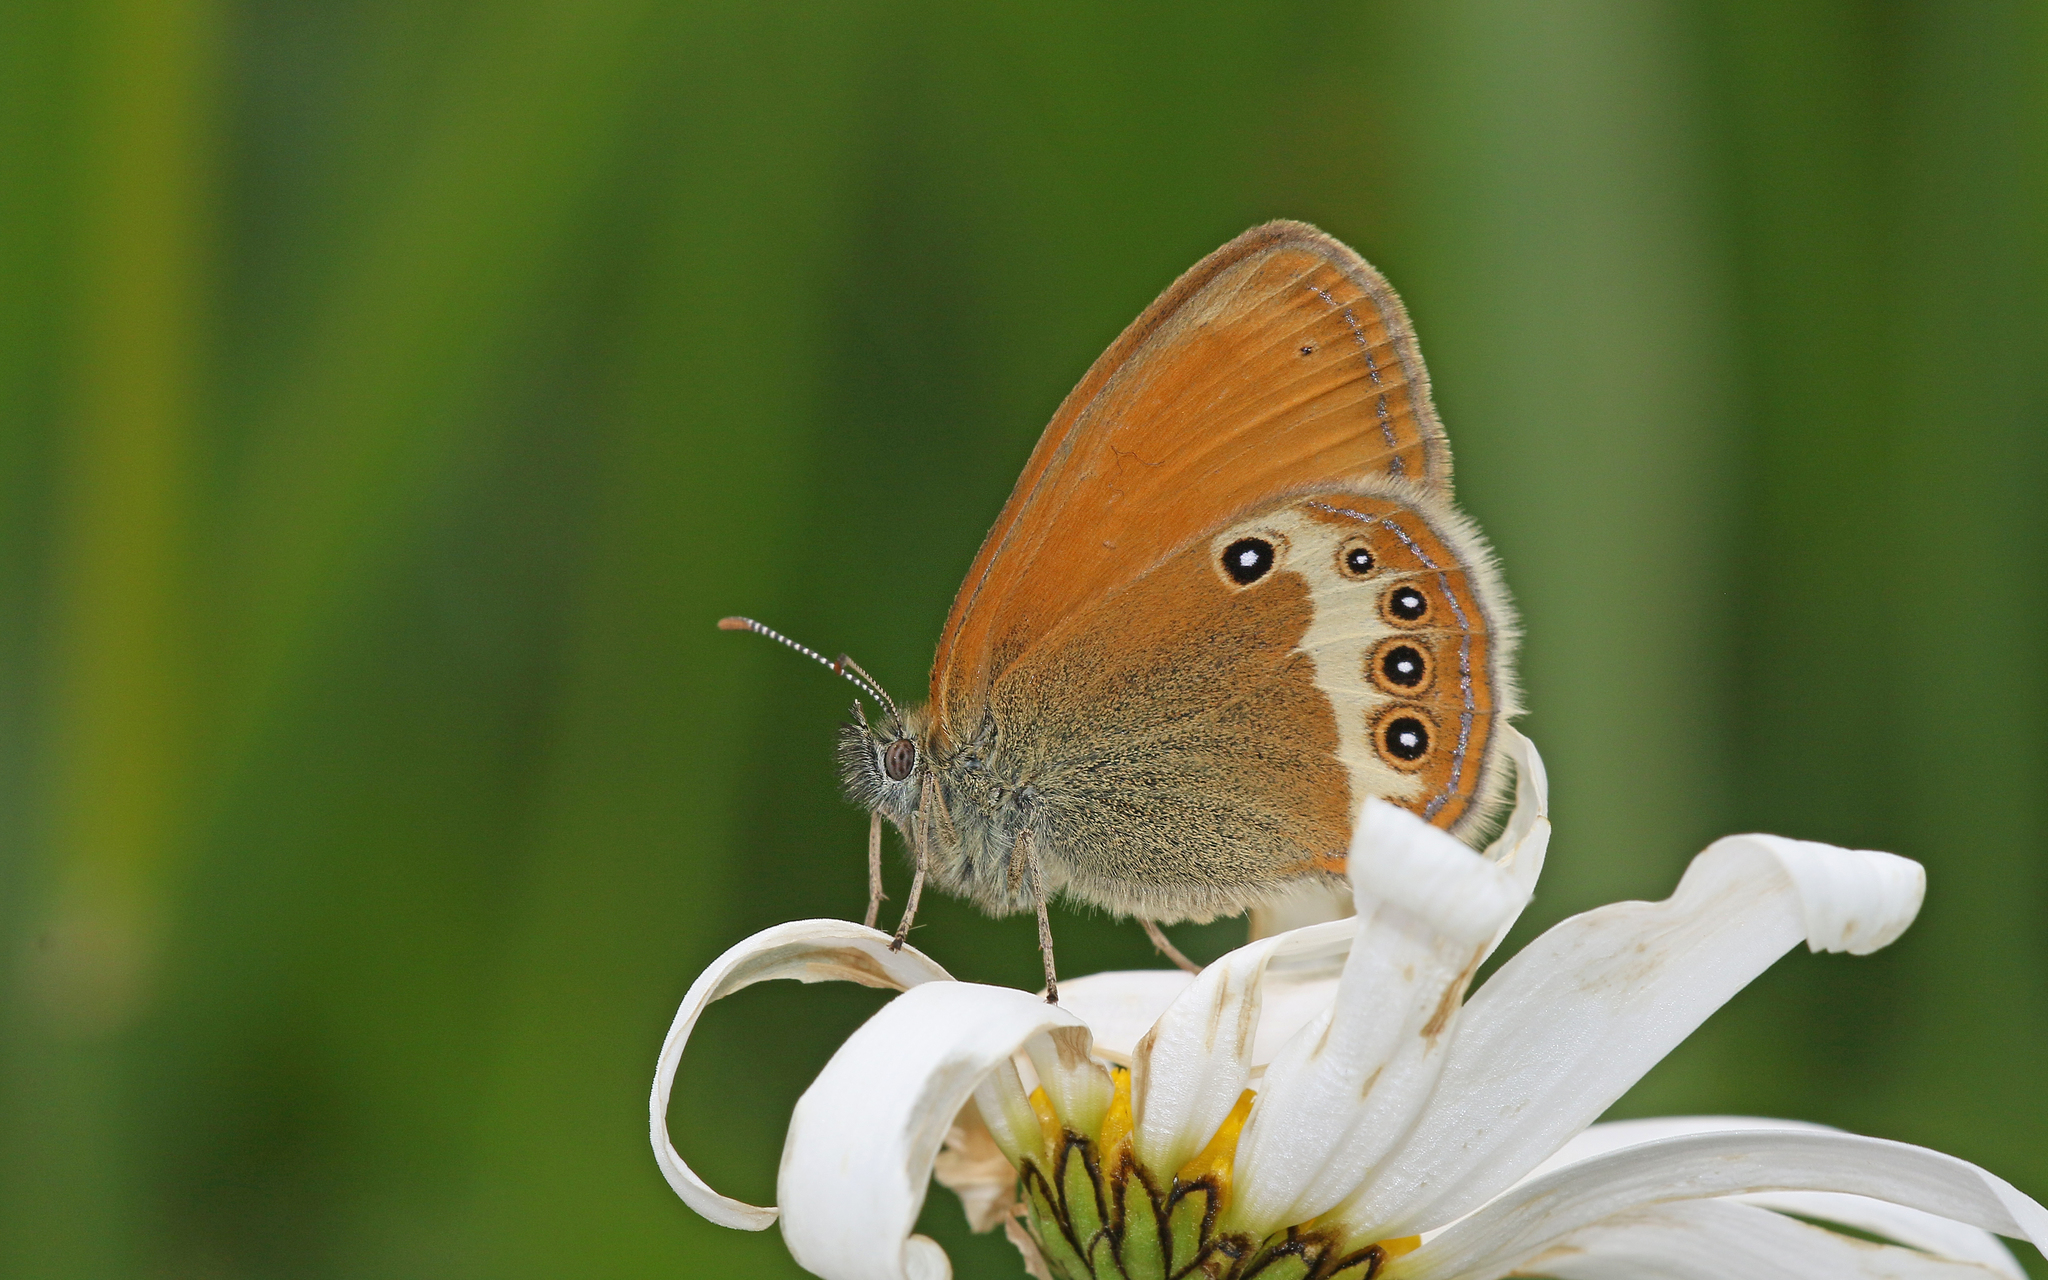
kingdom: Animalia
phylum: Arthropoda
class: Insecta
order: Lepidoptera
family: Nymphalidae
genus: Coenonympha
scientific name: Coenonympha arcania
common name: Pearly heath
